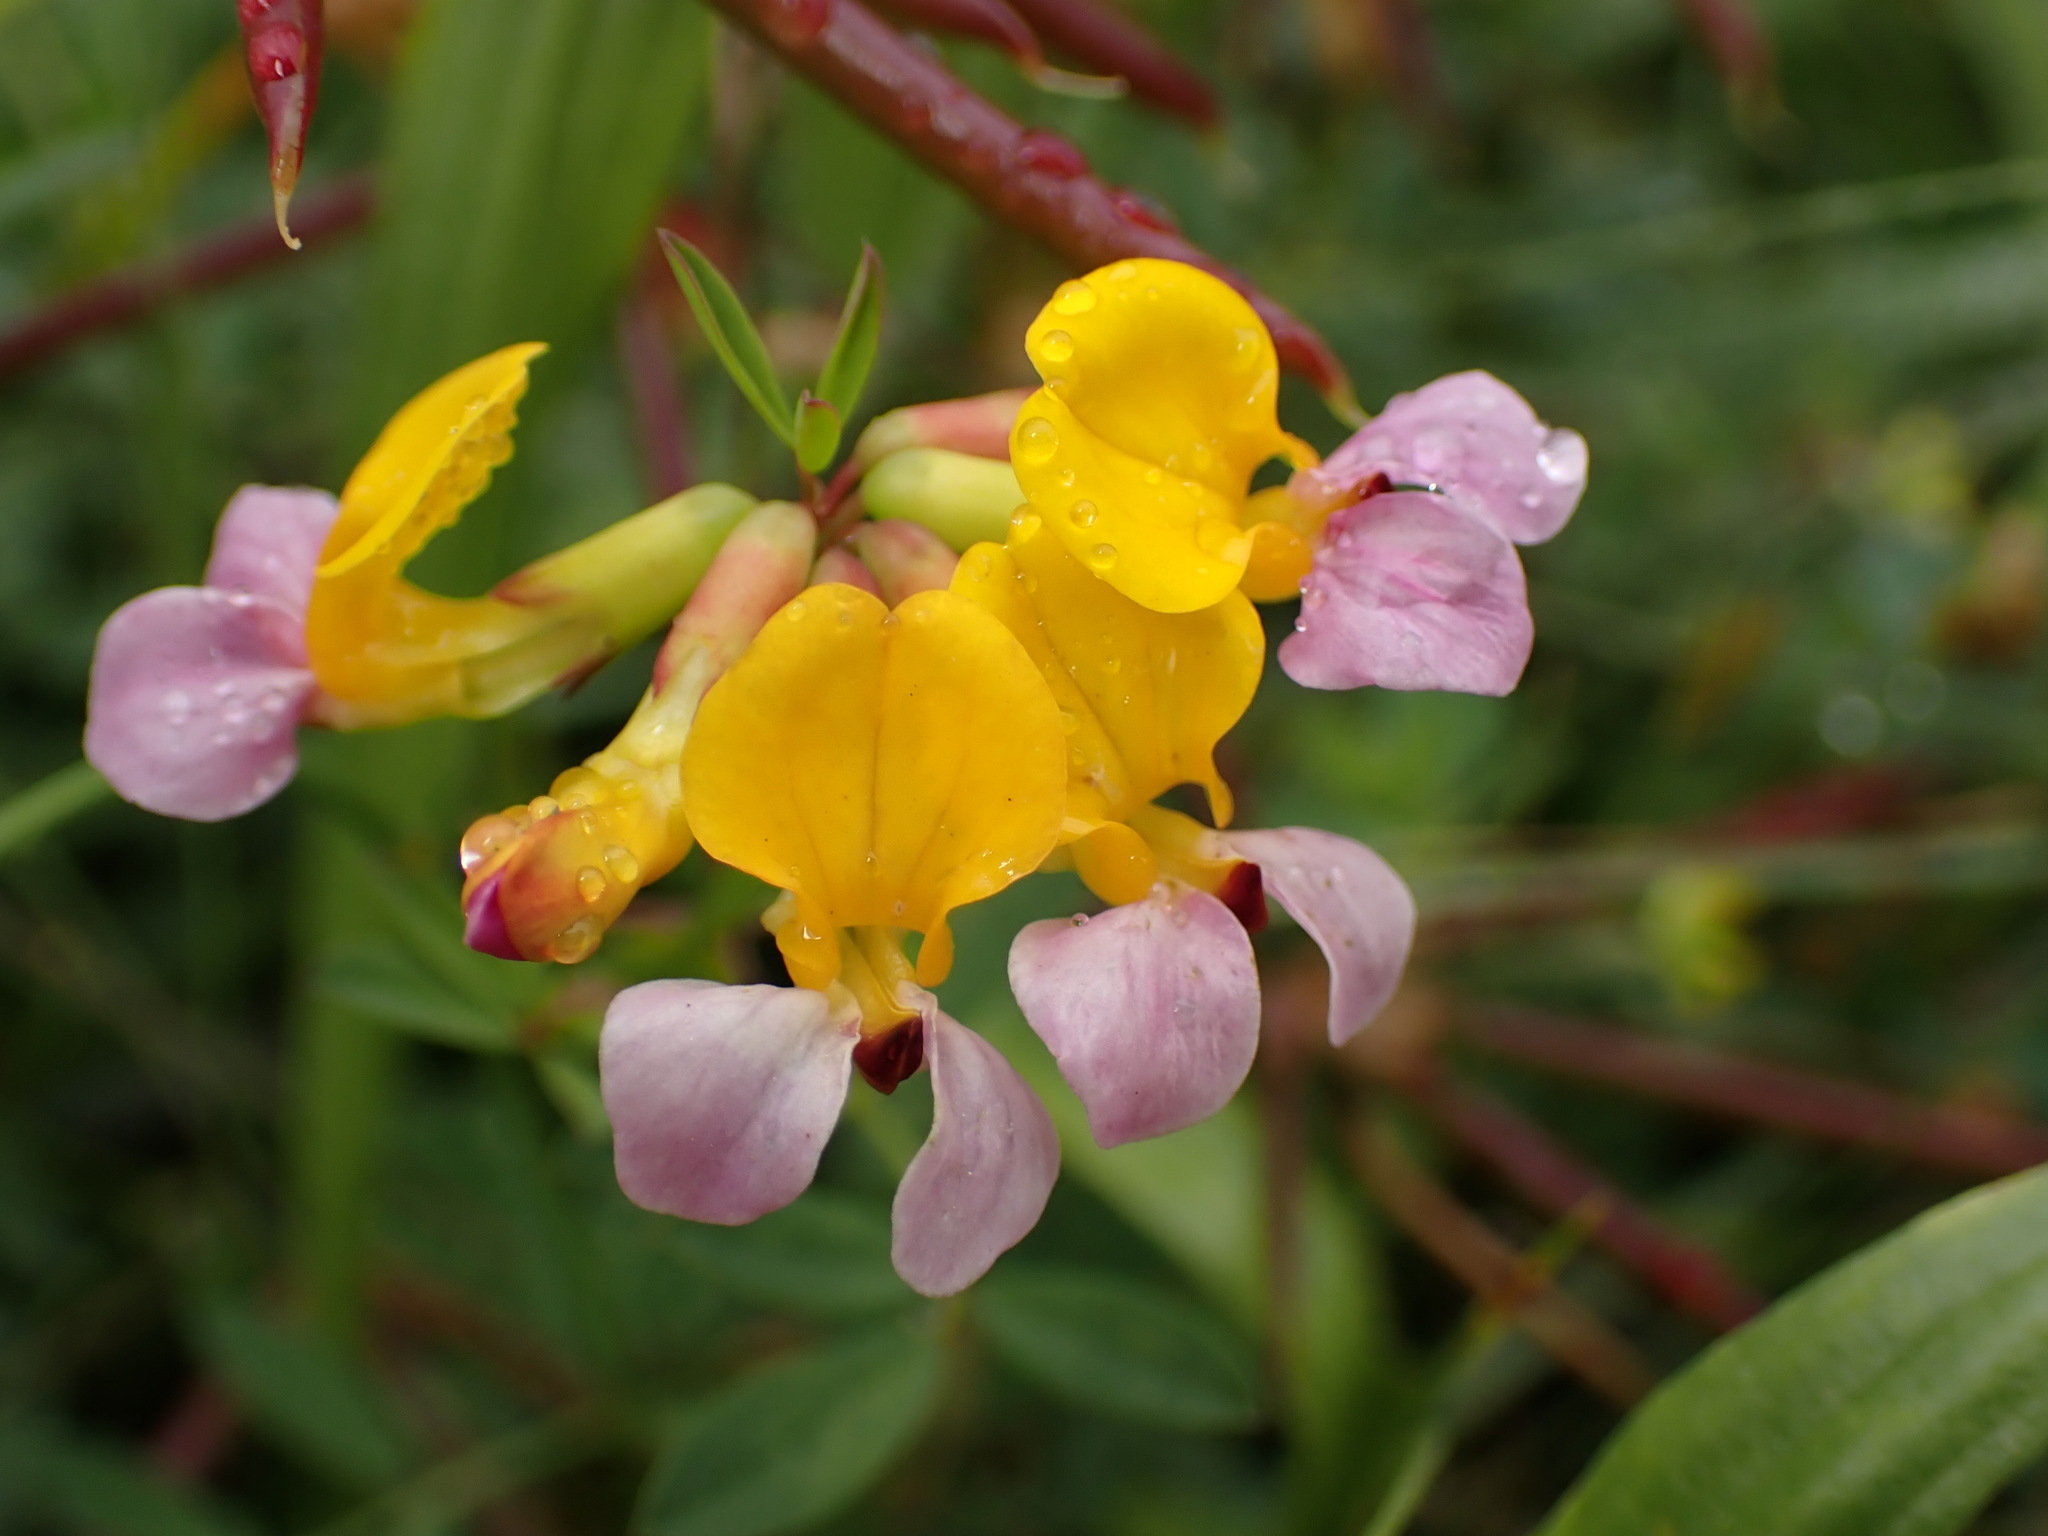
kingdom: Plantae
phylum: Tracheophyta
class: Magnoliopsida
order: Fabales
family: Fabaceae
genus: Hosackia
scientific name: Hosackia gracilis
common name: Seaside bird's-foot lotus
